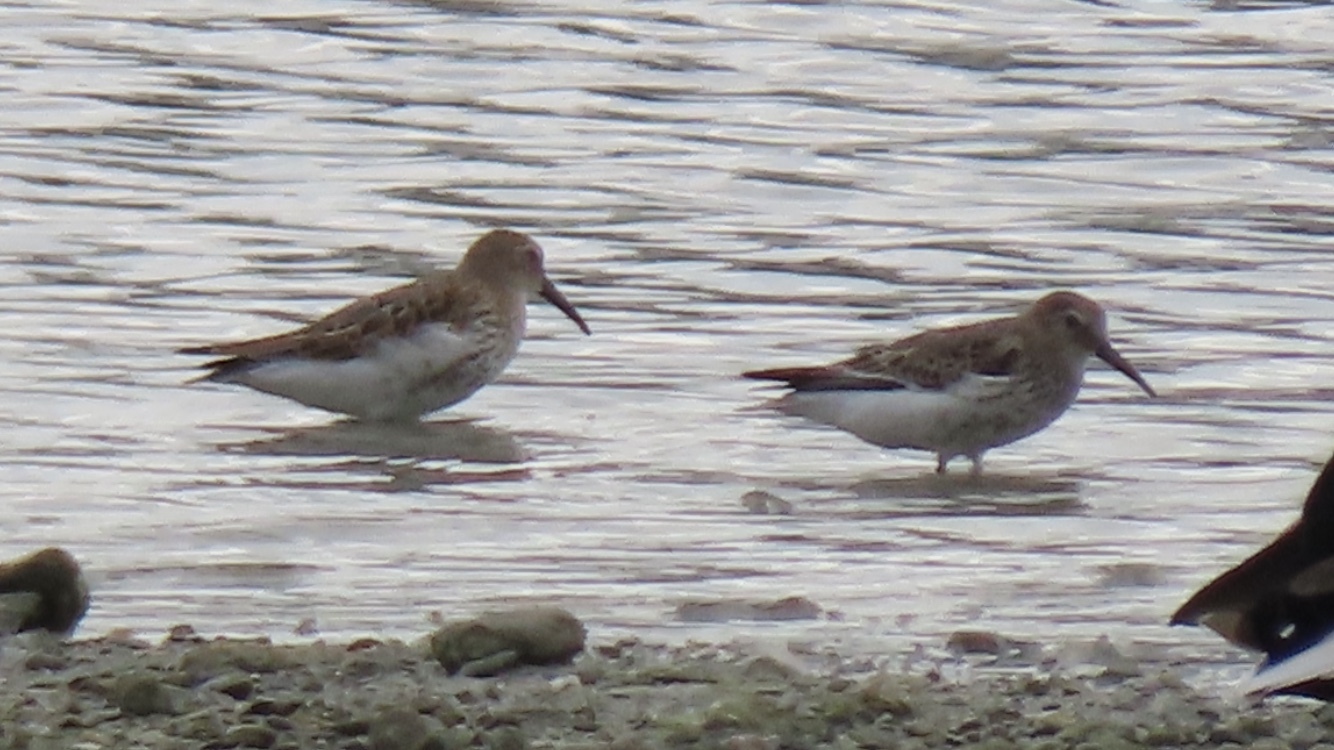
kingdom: Animalia
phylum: Chordata
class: Aves
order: Charadriiformes
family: Scolopacidae
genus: Calidris
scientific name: Calidris alpina
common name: Dunlin
